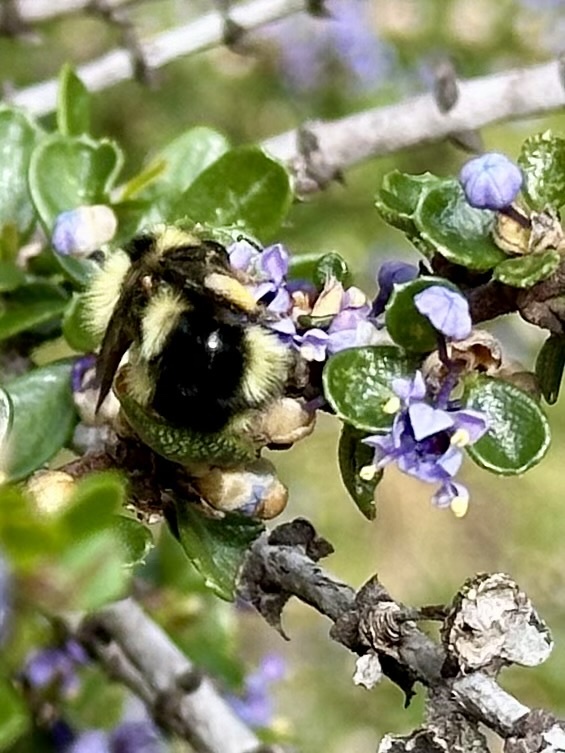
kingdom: Animalia
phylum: Arthropoda
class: Insecta
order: Hymenoptera
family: Apidae
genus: Bombus
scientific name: Bombus melanopygus
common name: Black tail bumble bee
